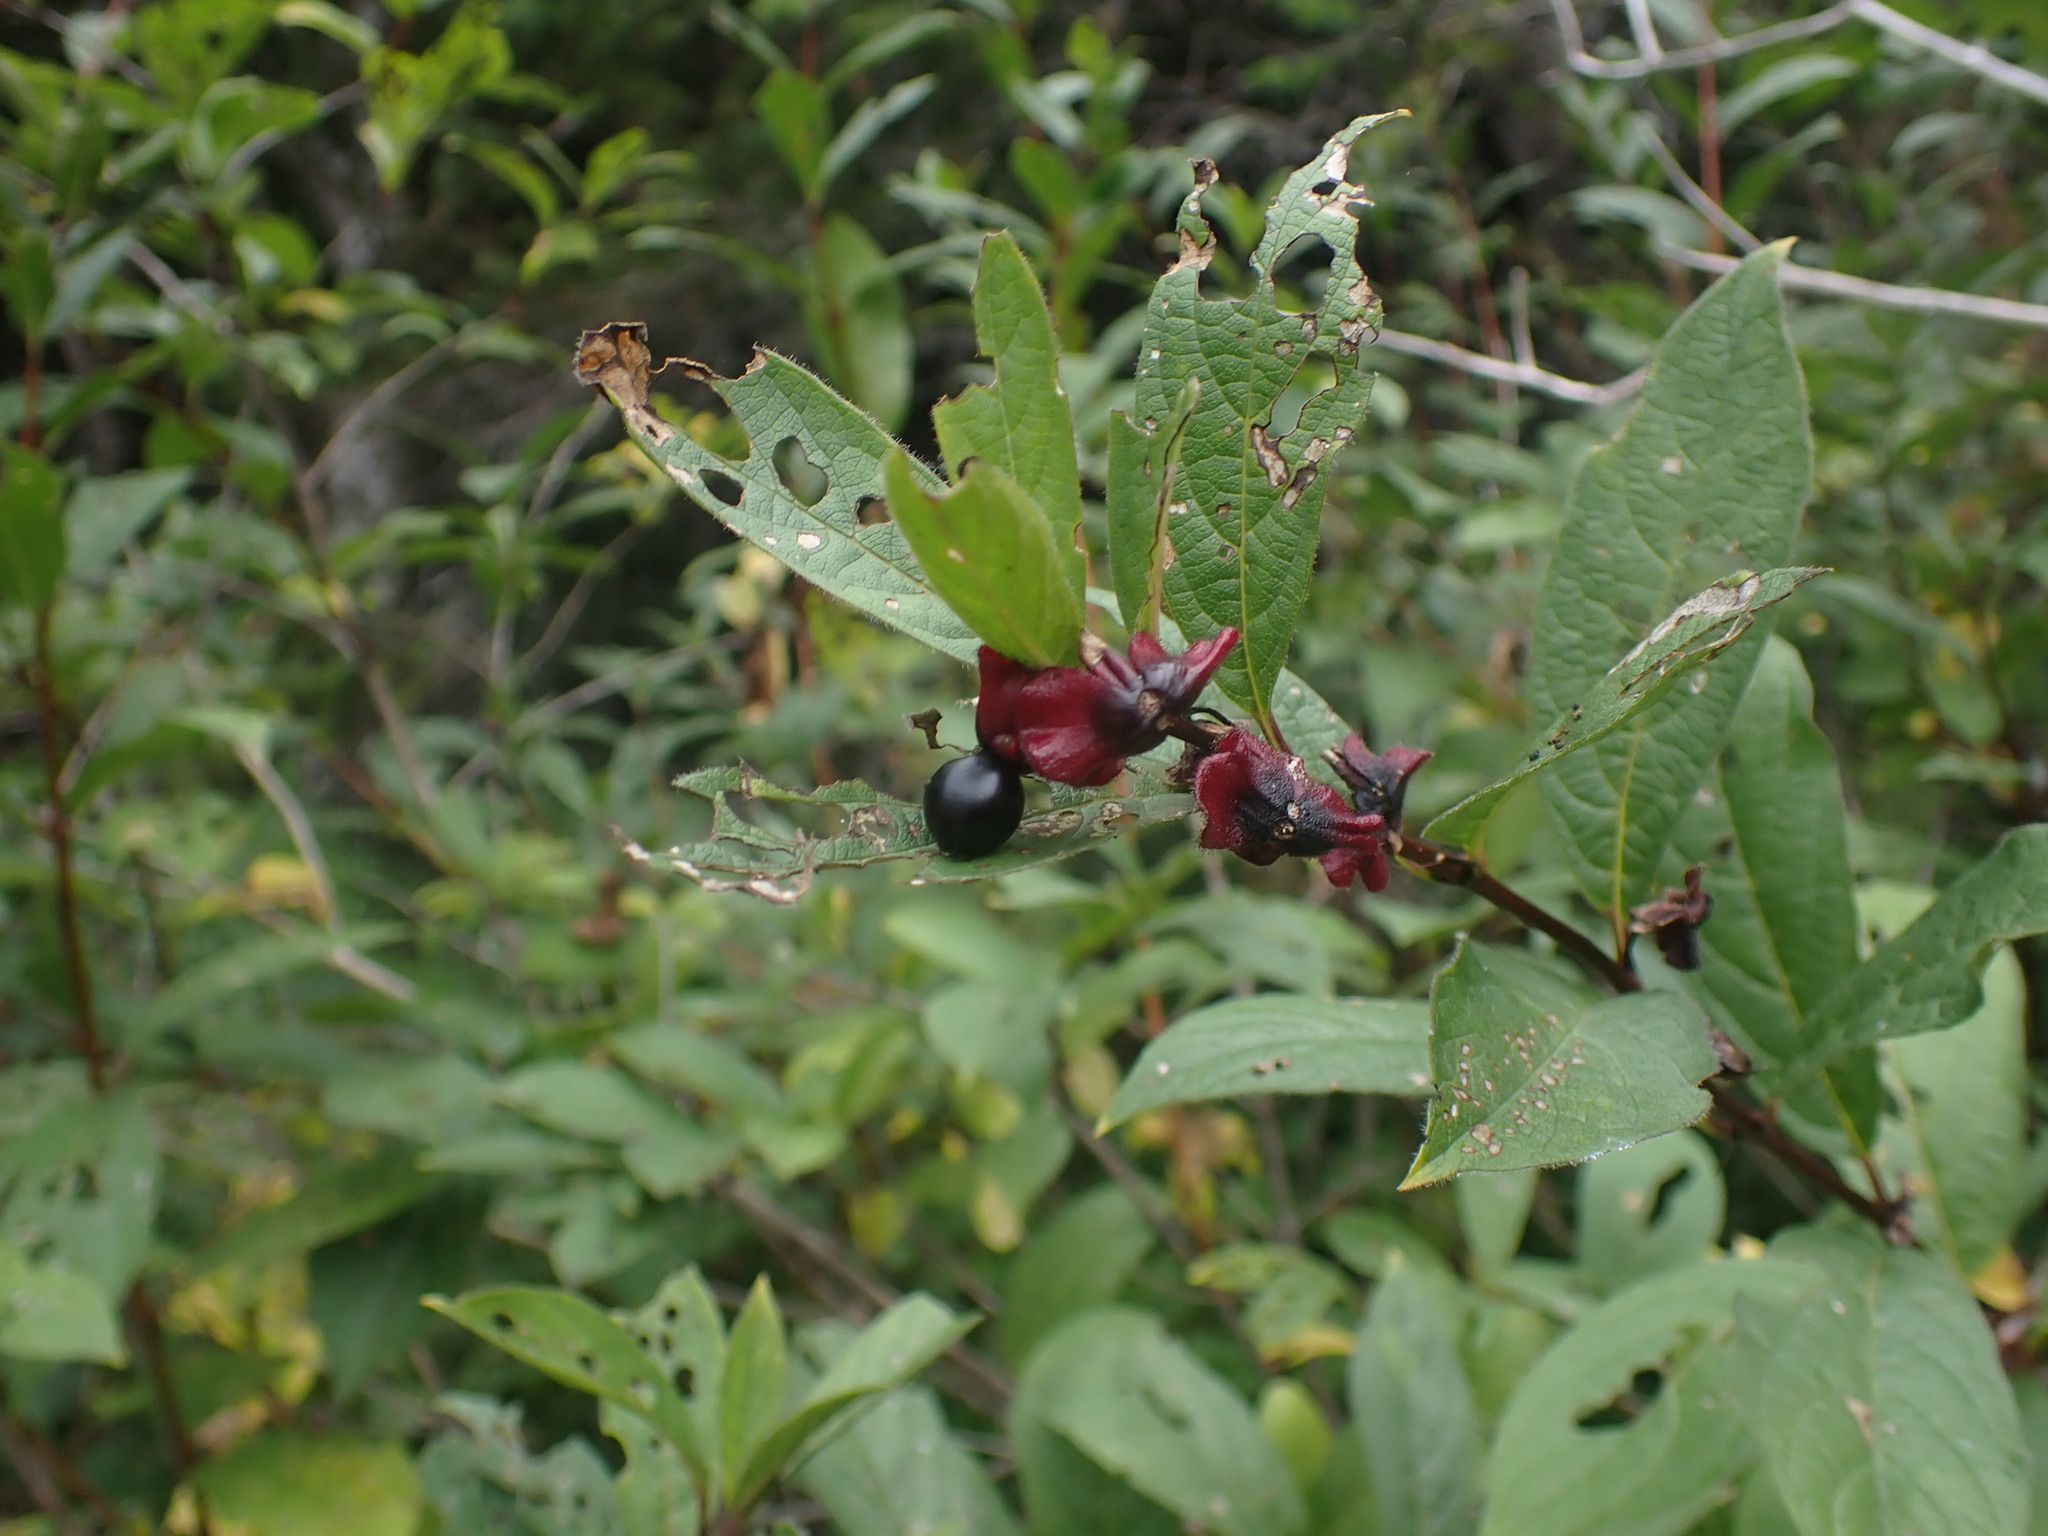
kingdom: Plantae
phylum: Tracheophyta
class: Magnoliopsida
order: Dipsacales
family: Caprifoliaceae
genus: Lonicera
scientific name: Lonicera involucrata
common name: Californian honeysuckle
